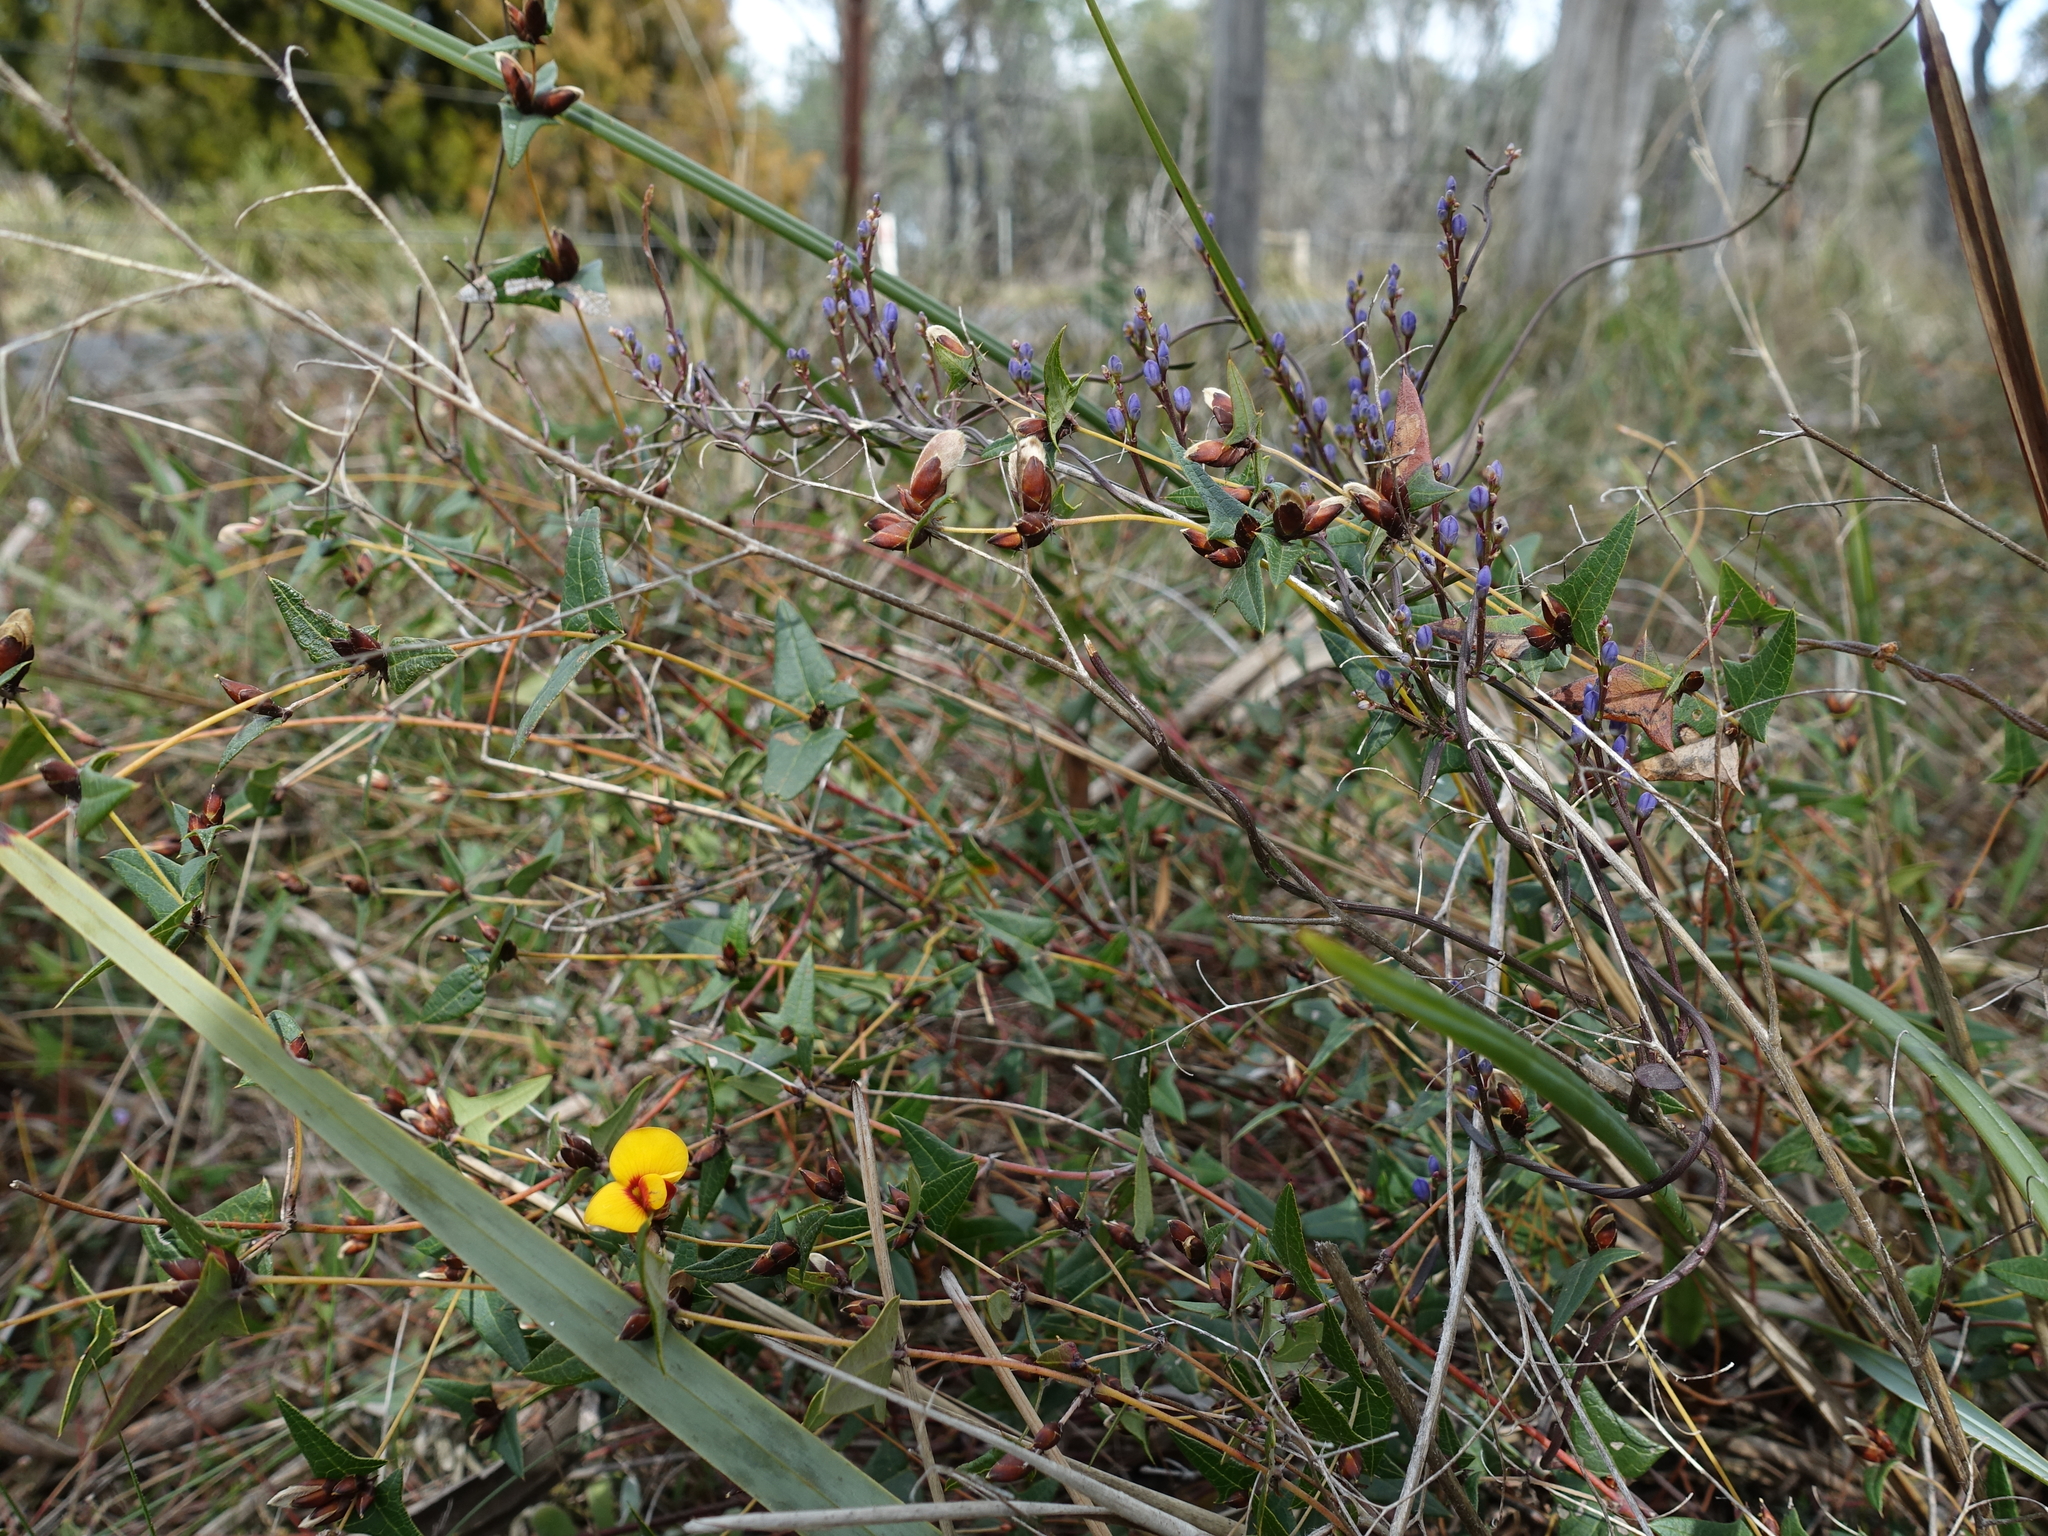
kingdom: Plantae
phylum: Tracheophyta
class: Magnoliopsida
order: Fabales
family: Fabaceae
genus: Platylobium
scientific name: Platylobium triangulare
